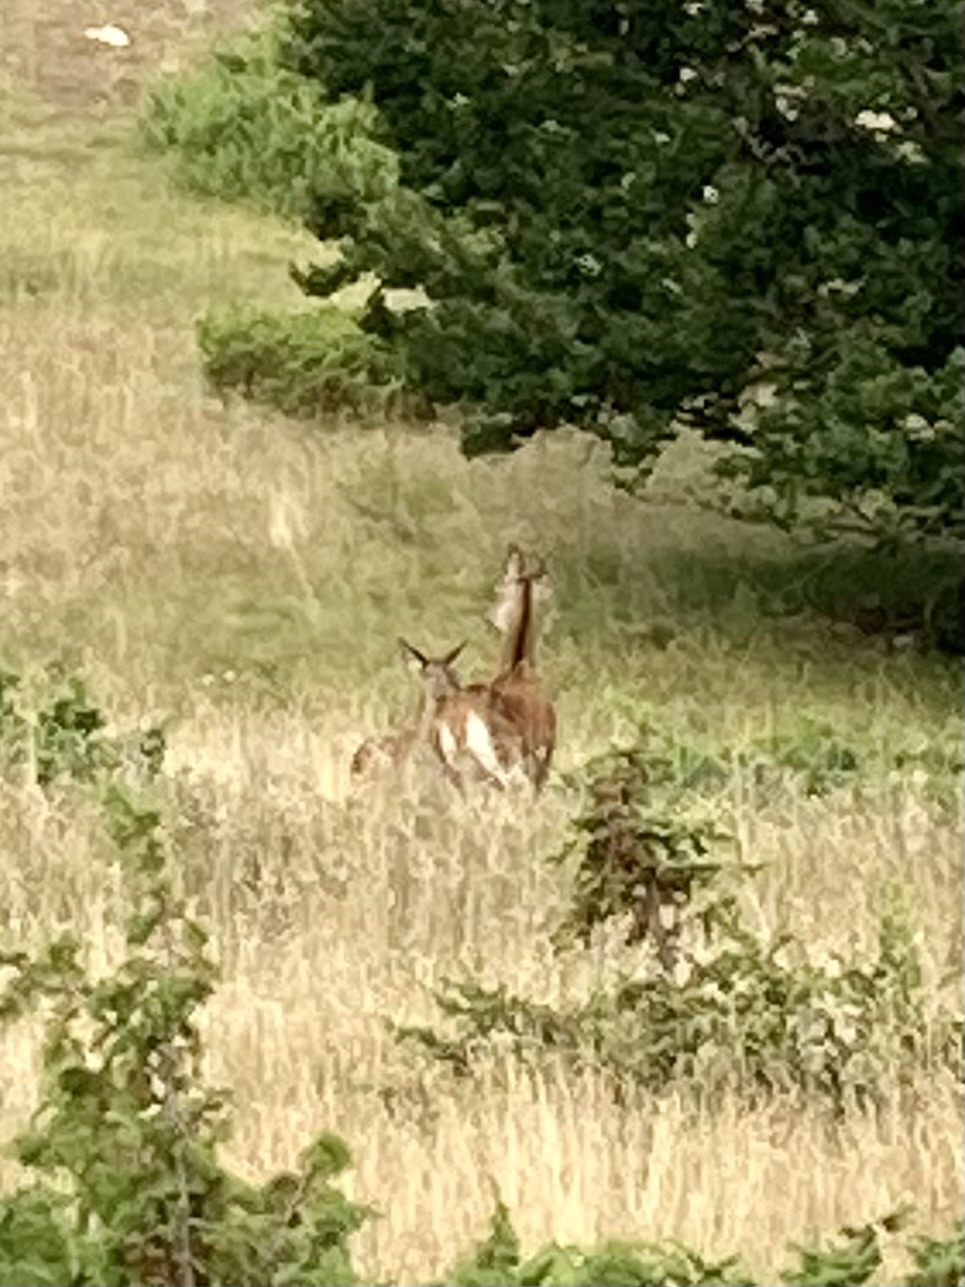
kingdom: Animalia
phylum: Chordata
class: Mammalia
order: Artiodactyla
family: Cervidae
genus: Cervus
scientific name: Cervus elaphus
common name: Red deer
